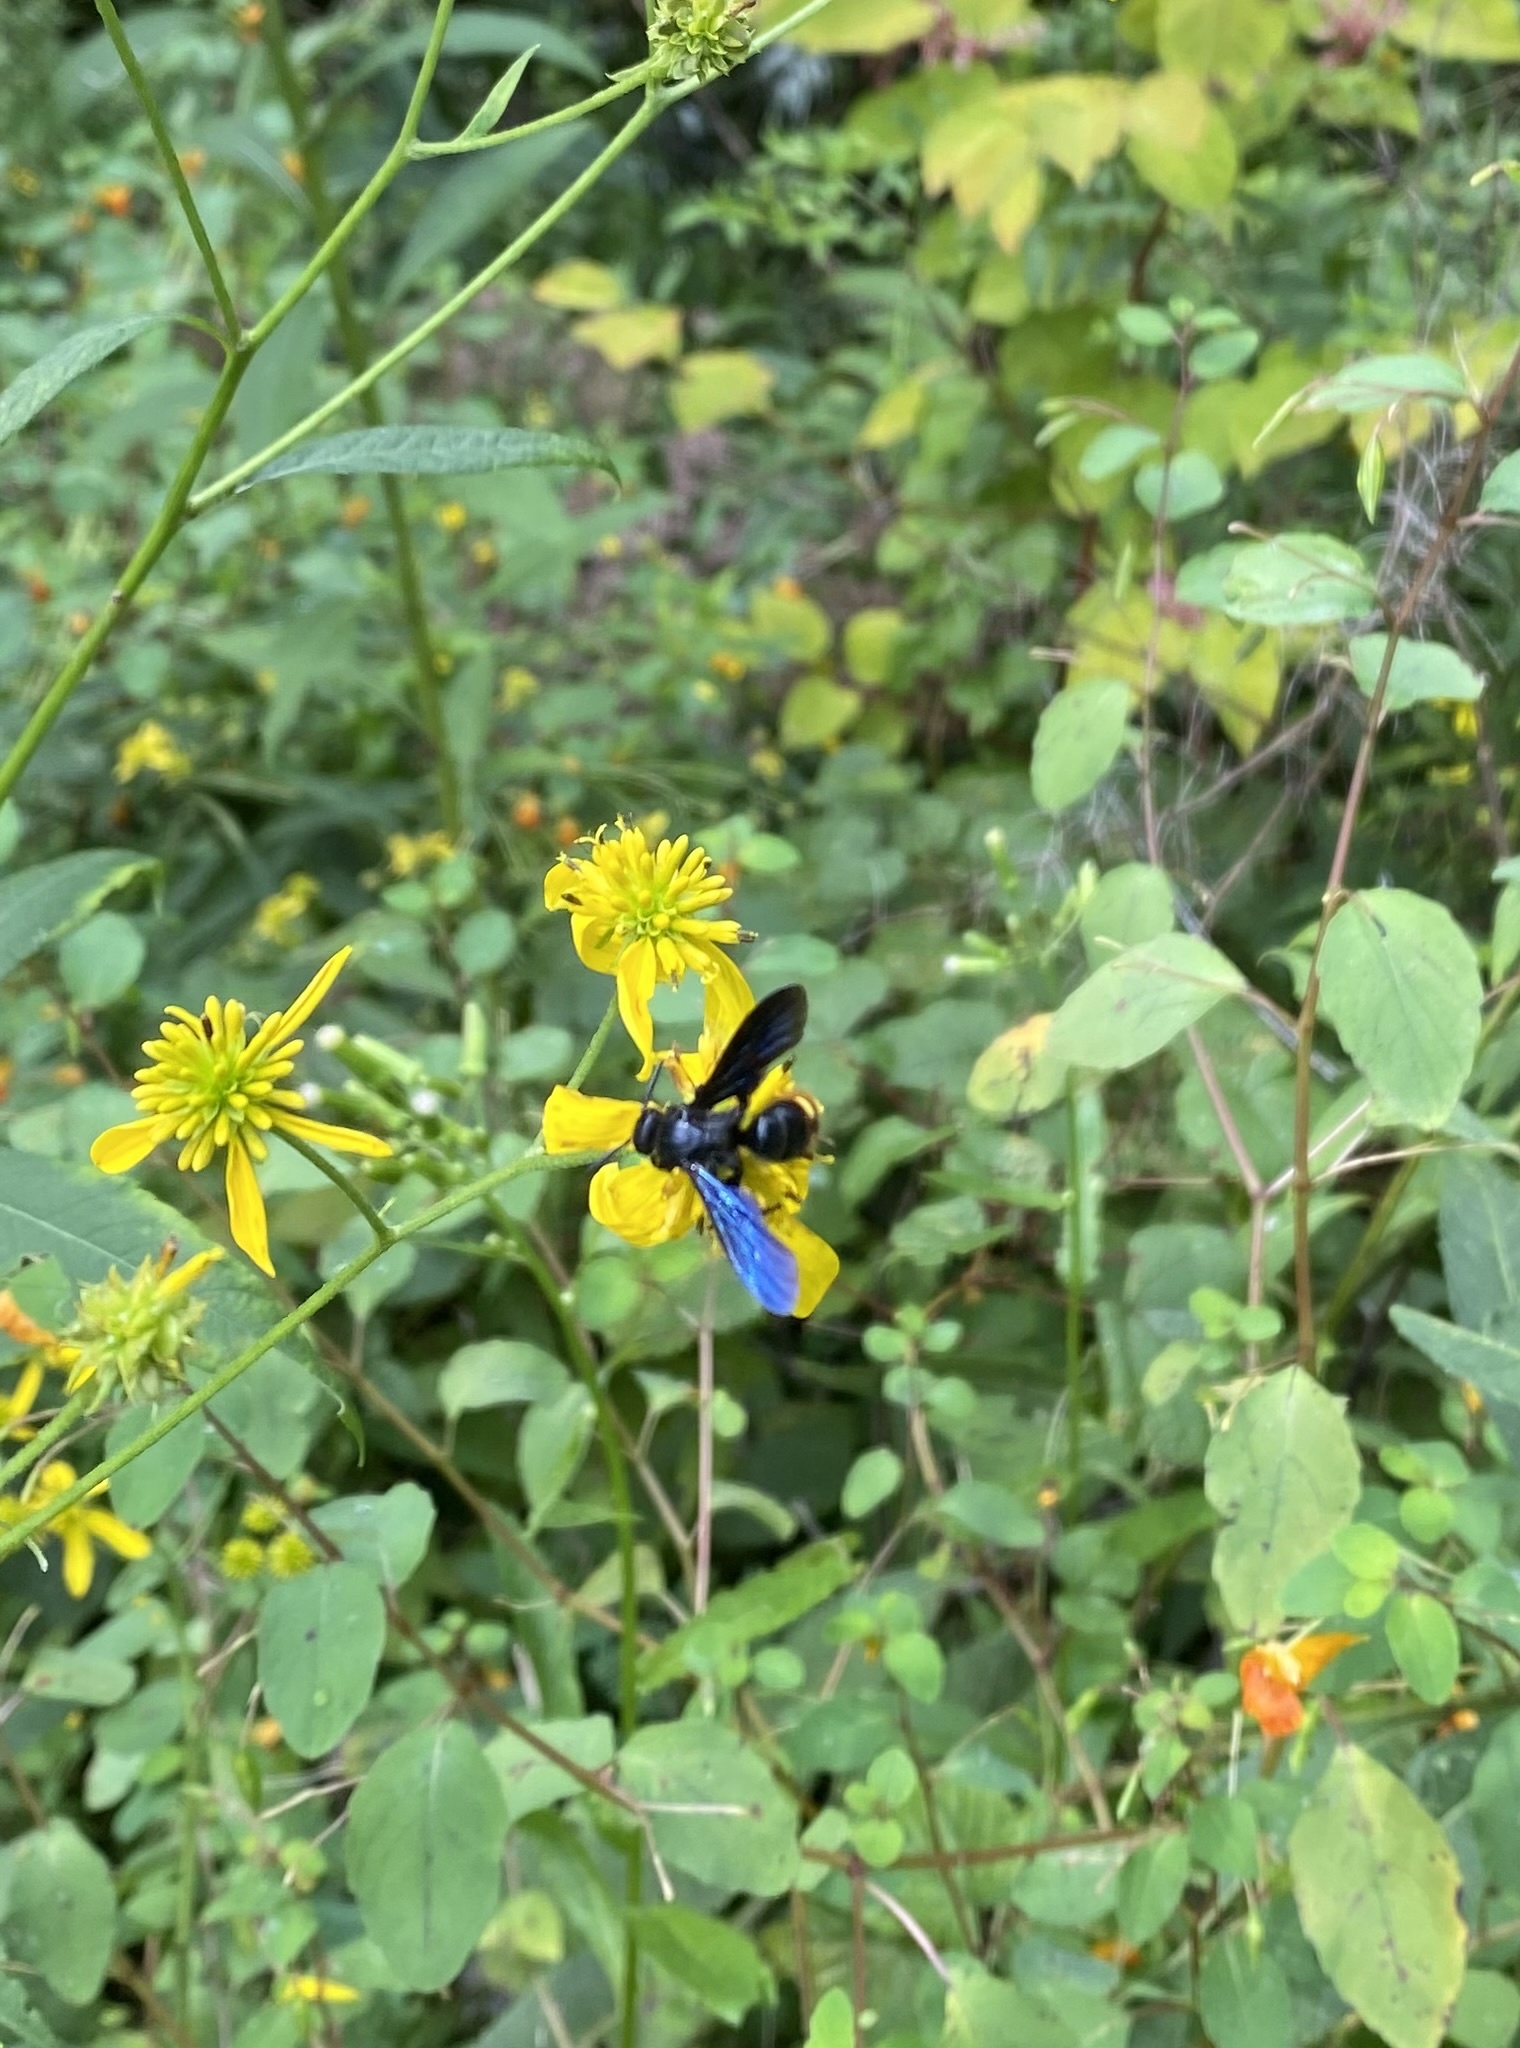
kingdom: Animalia
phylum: Arthropoda
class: Insecta
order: Hymenoptera
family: Scoliidae
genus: Scolia
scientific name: Scolia dubia
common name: Blue-winged scoliid wasp
